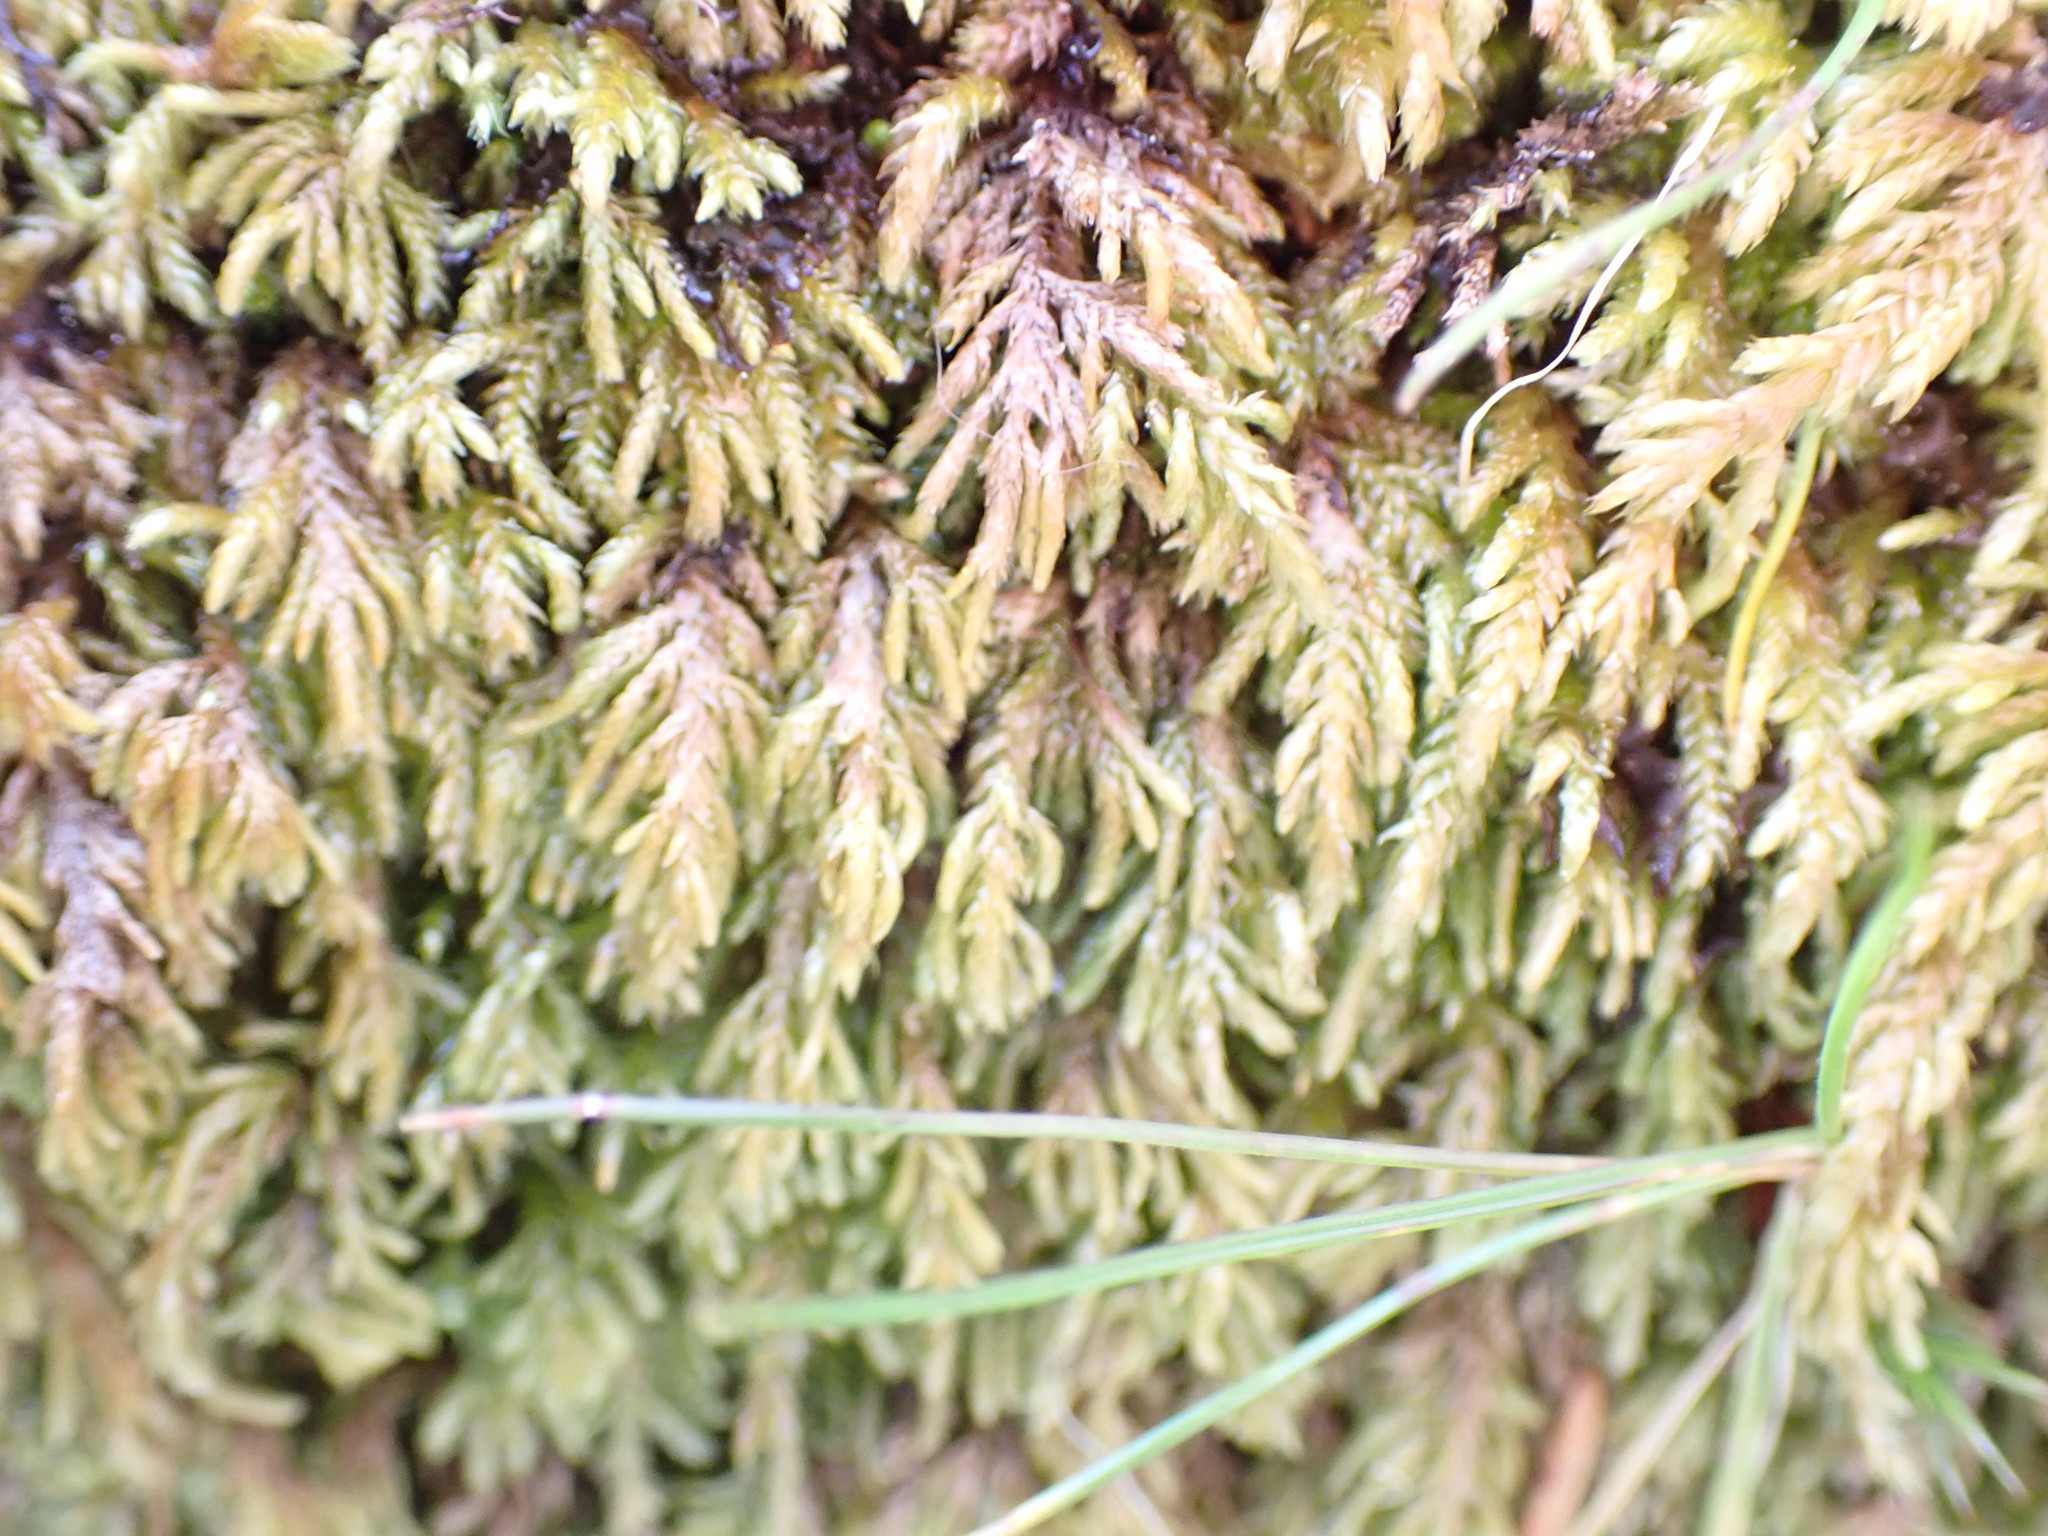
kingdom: Plantae
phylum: Bryophyta
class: Bryopsida
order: Hypnales
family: Lembophyllaceae
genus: Pseudisothecium
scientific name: Pseudisothecium cristatum
